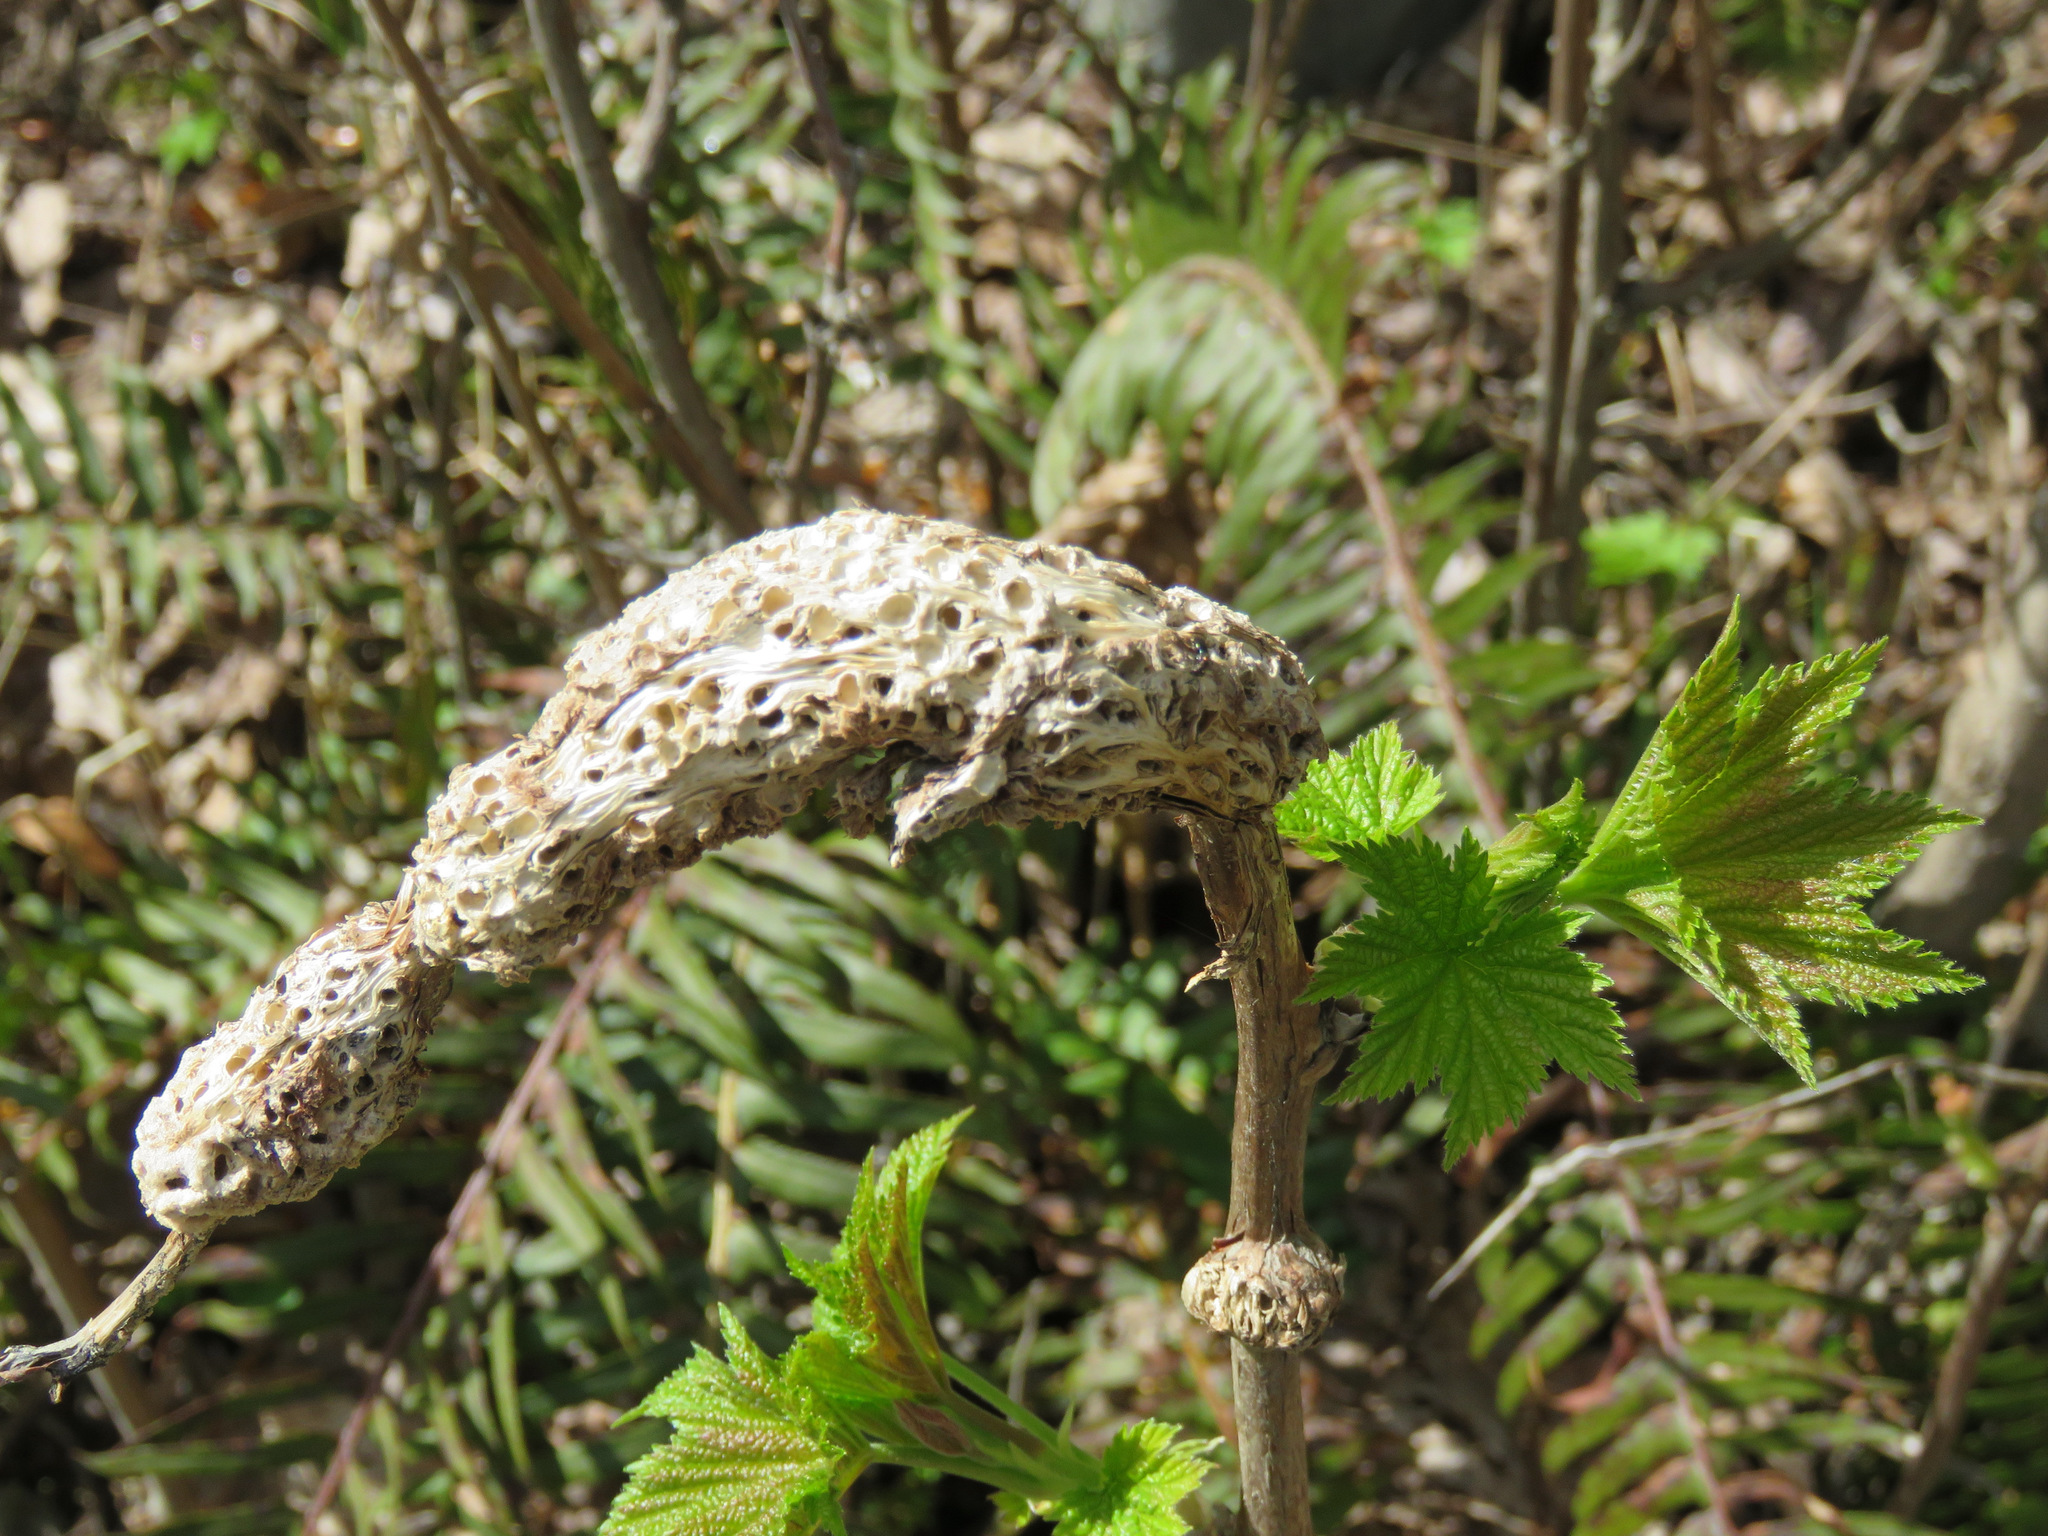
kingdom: Animalia
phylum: Arthropoda
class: Insecta
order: Hymenoptera
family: Cynipidae
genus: Diastrophus
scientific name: Diastrophus
